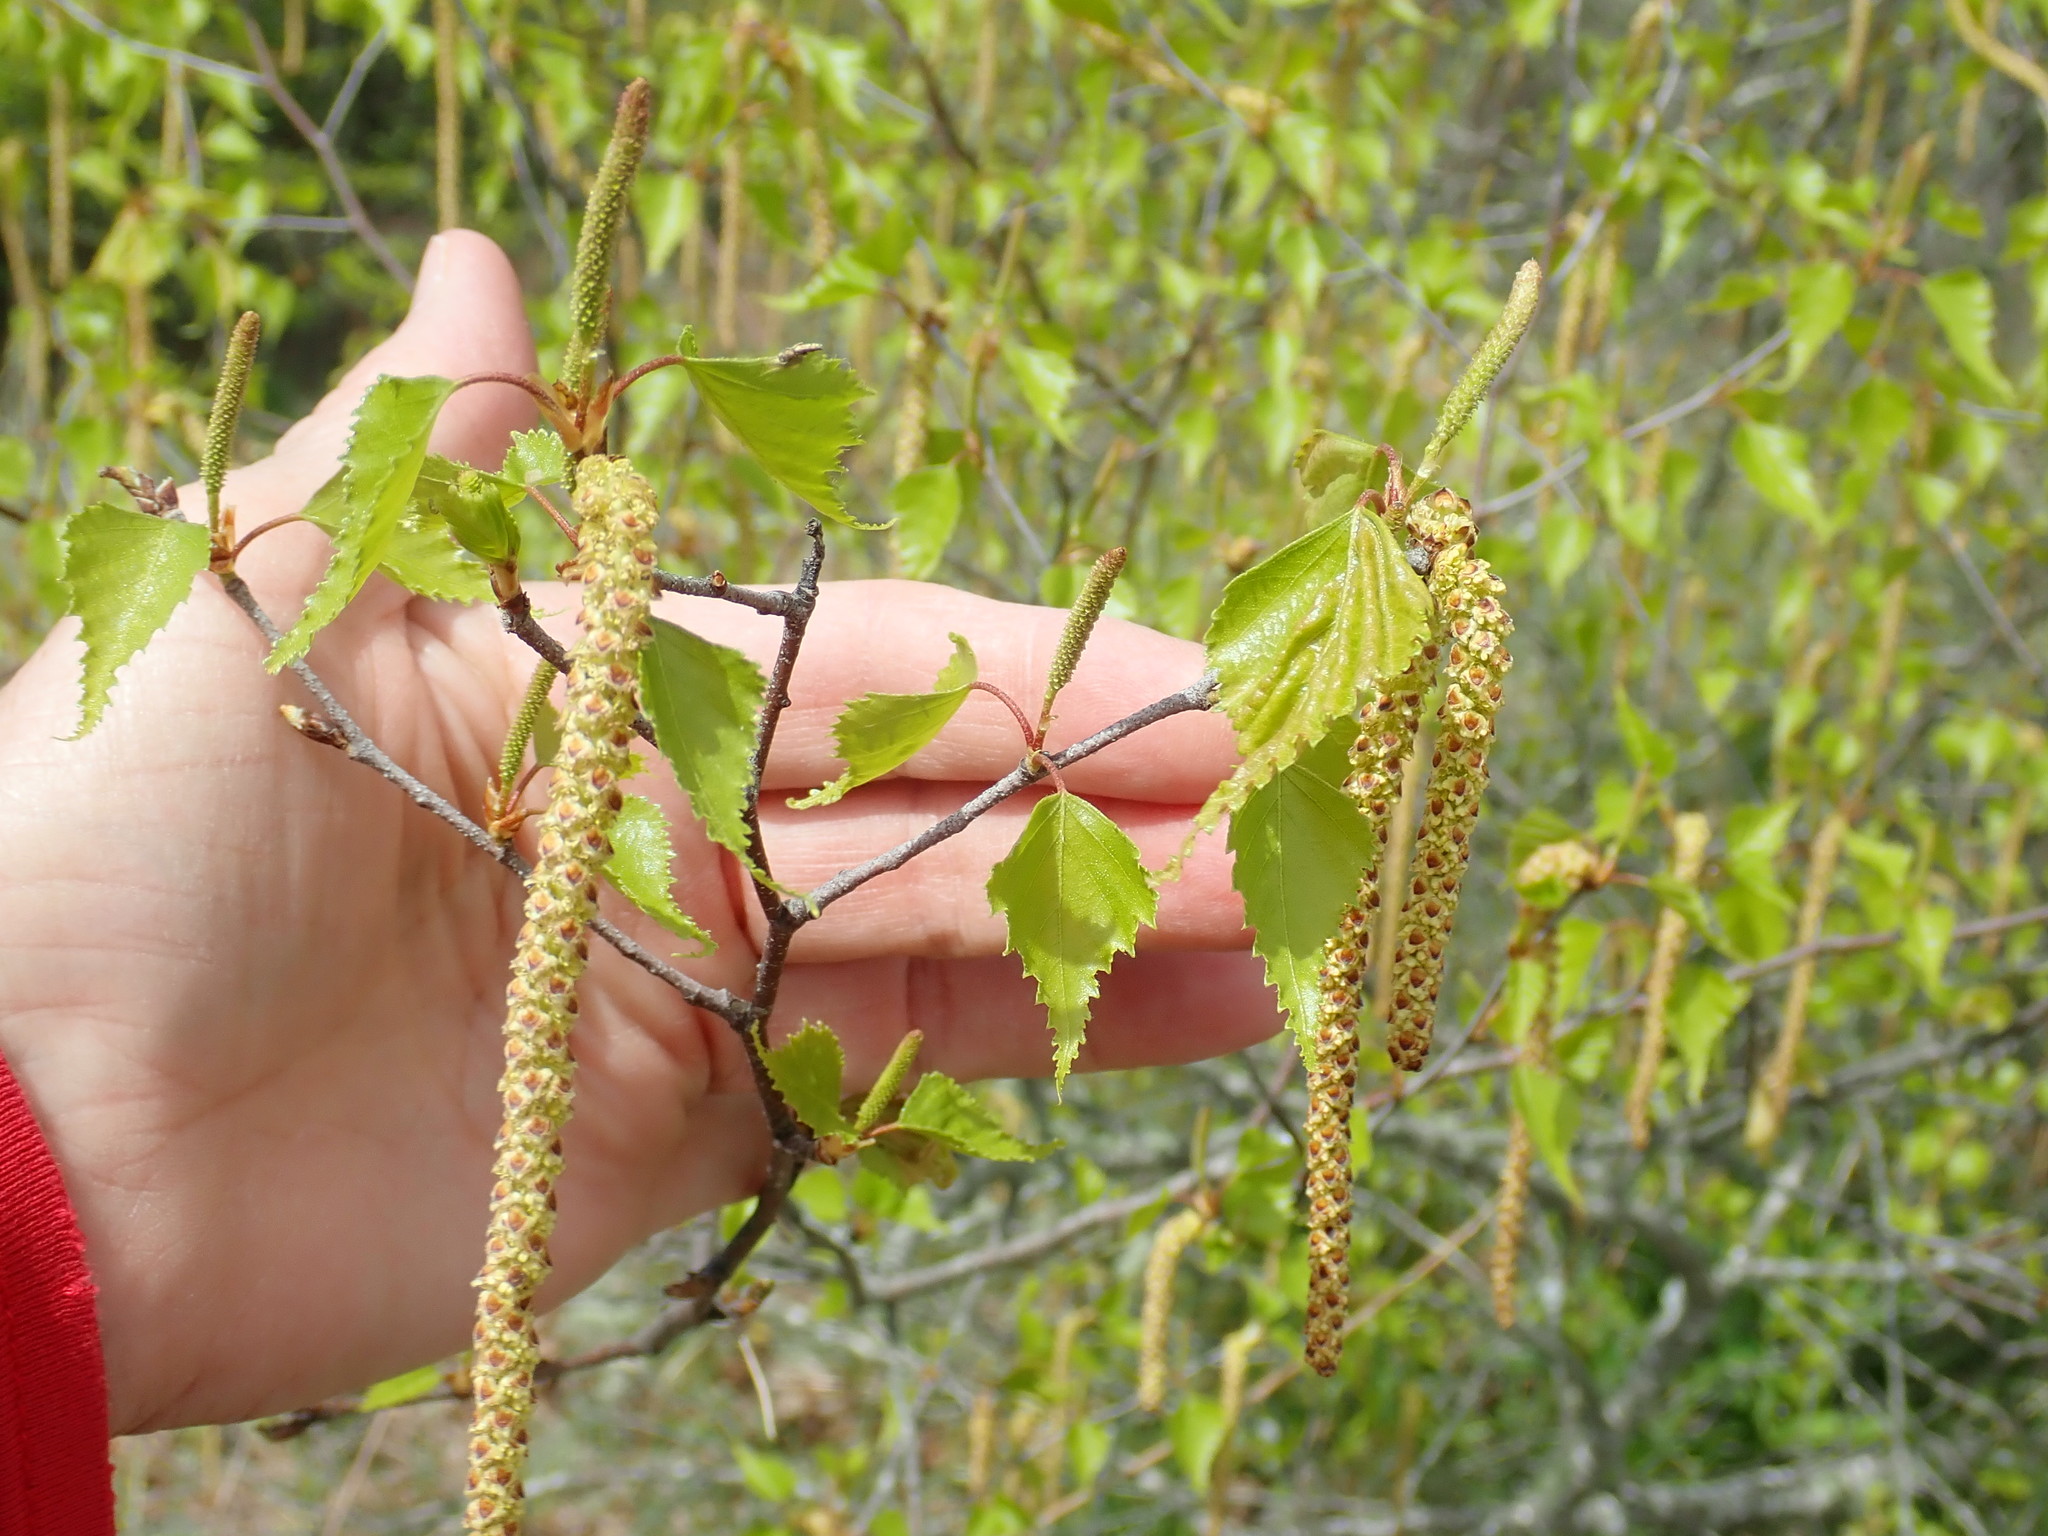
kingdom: Plantae
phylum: Tracheophyta
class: Magnoliopsida
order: Fagales
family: Betulaceae
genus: Betula
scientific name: Betula populifolia
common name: Fire birch
